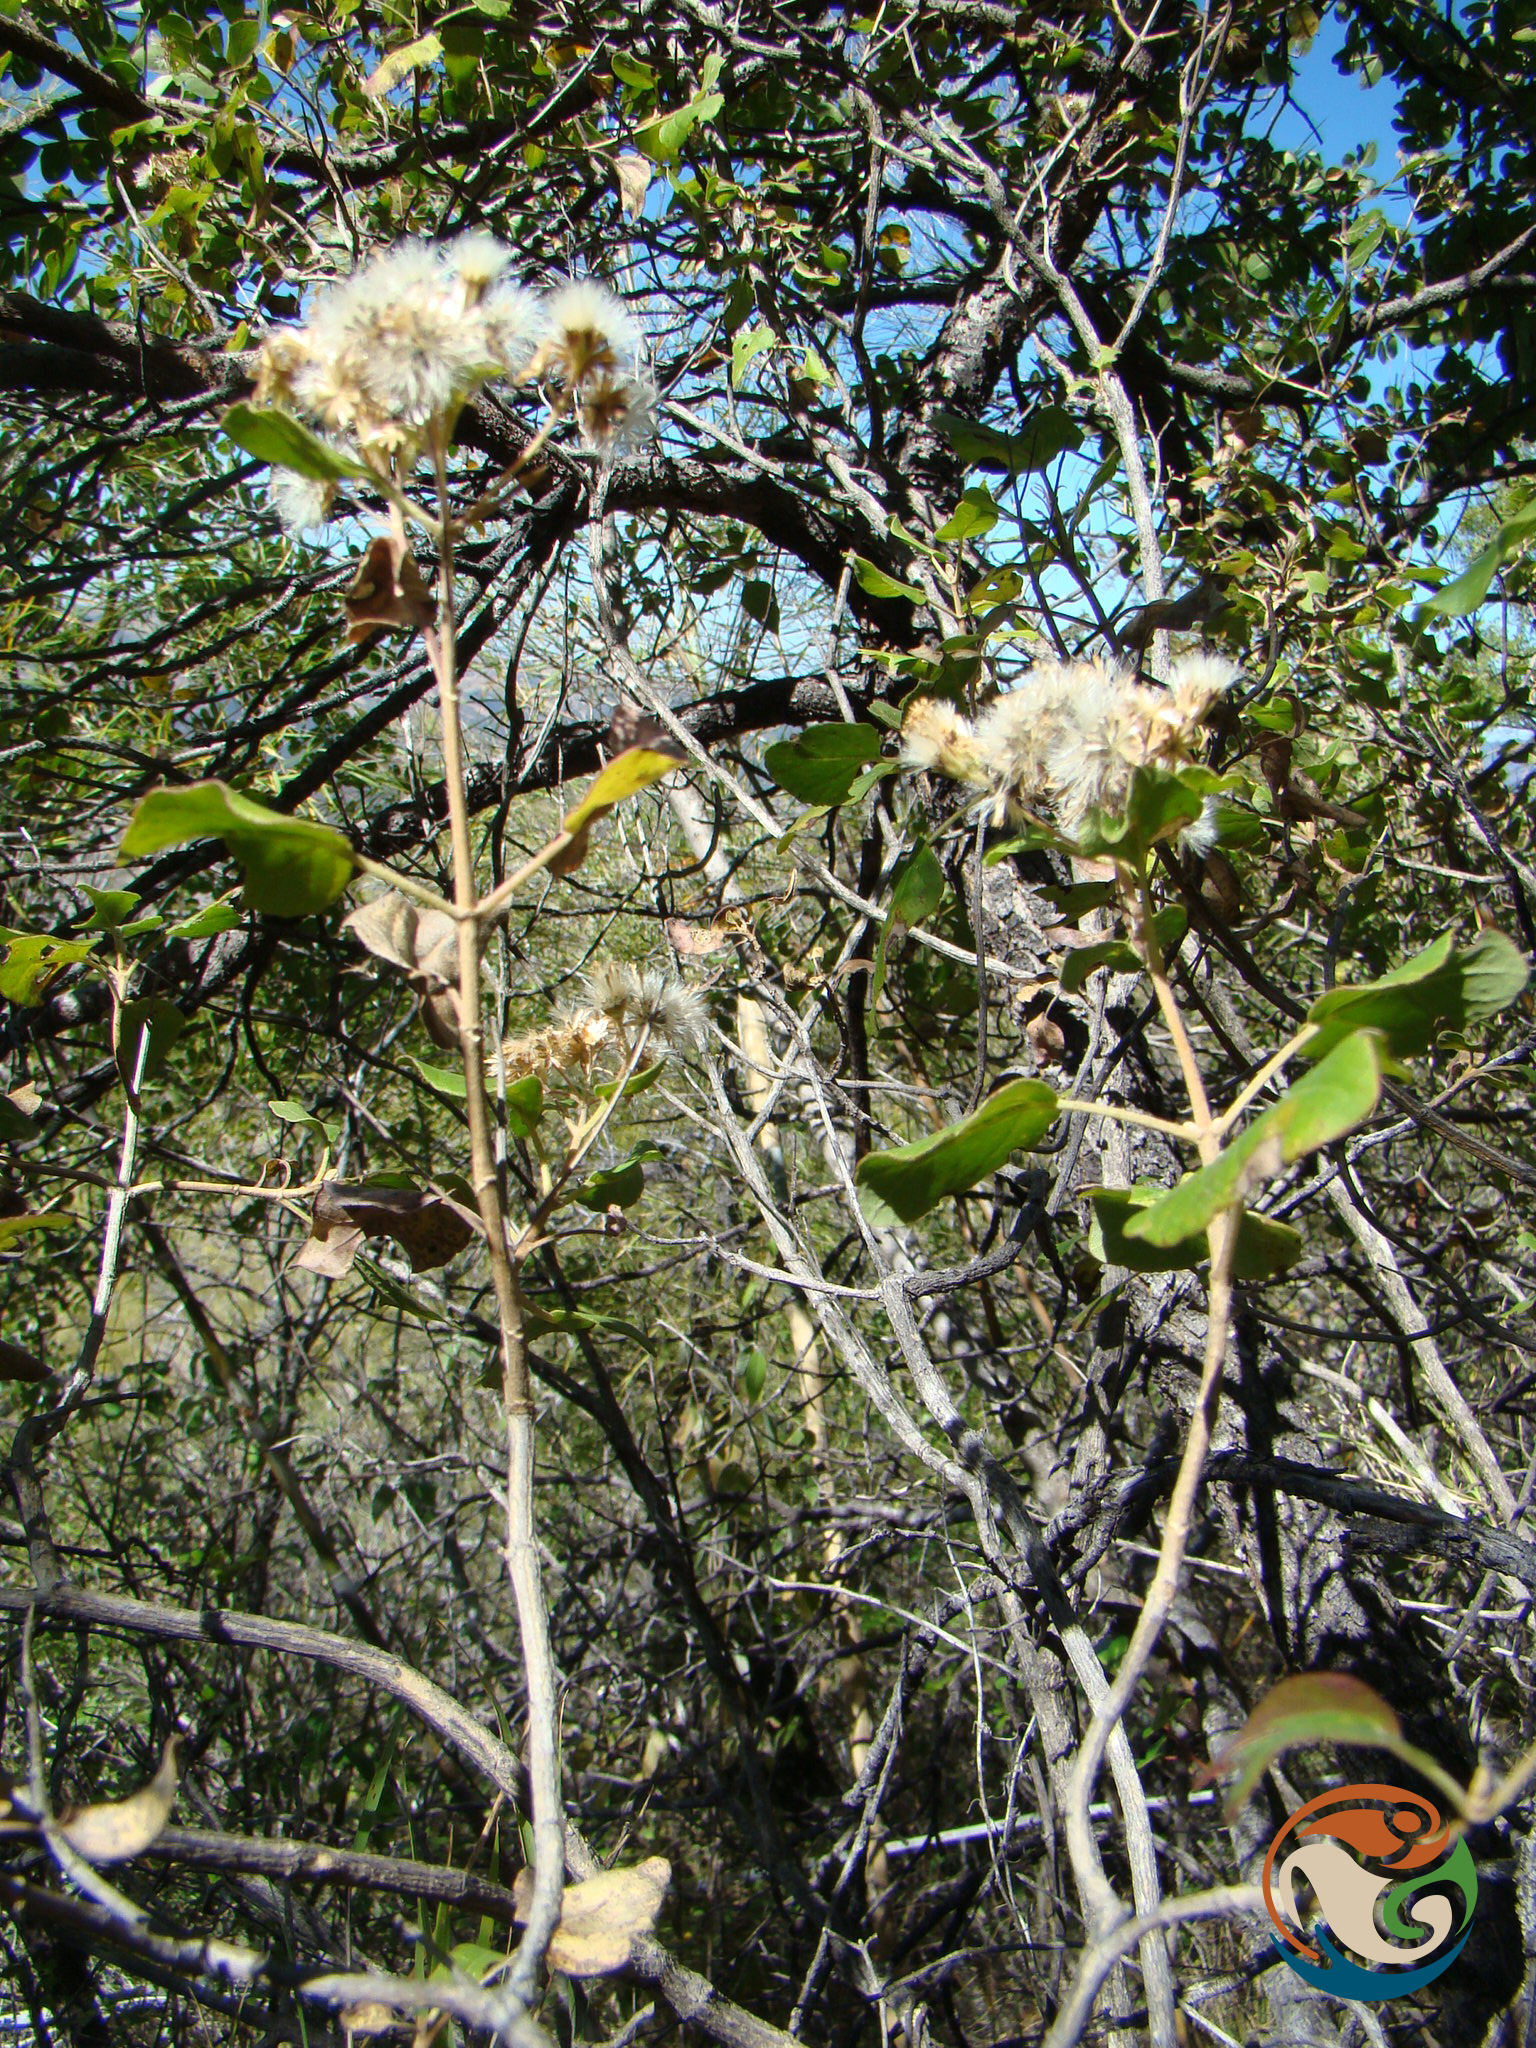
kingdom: Plantae
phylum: Tracheophyta
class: Magnoliopsida
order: Asterales
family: Asteraceae
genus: Ageratina
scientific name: Ageratina petiolaris
